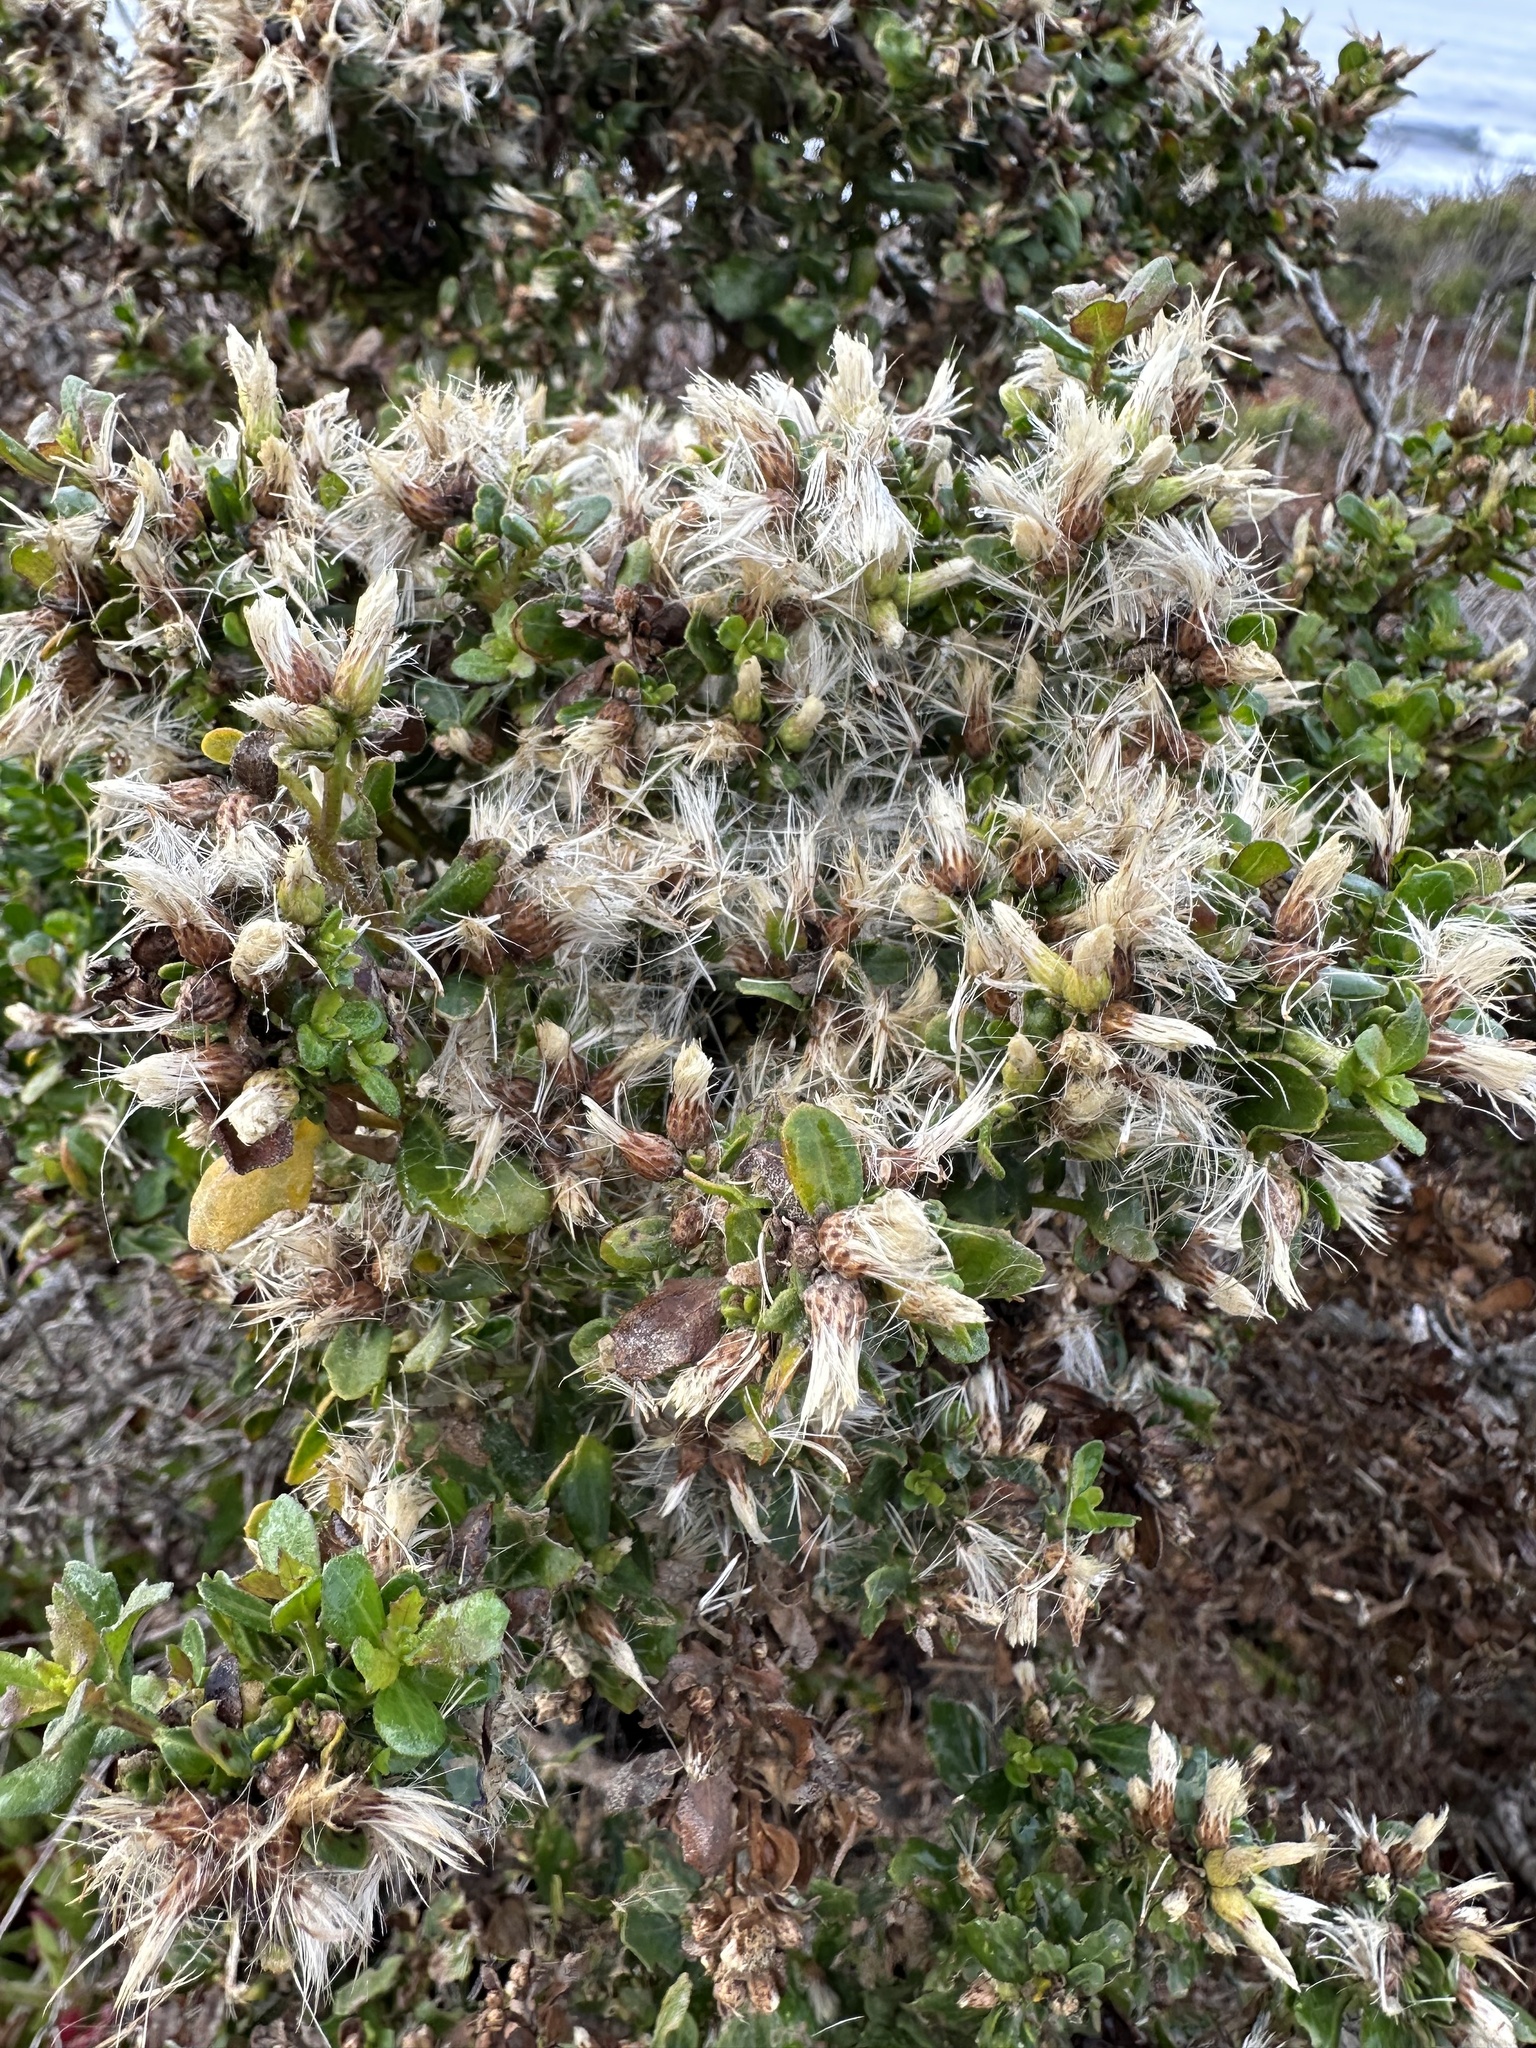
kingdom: Plantae
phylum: Tracheophyta
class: Magnoliopsida
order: Asterales
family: Asteraceae
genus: Baccharis
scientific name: Baccharis pilularis
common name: Coyotebrush
